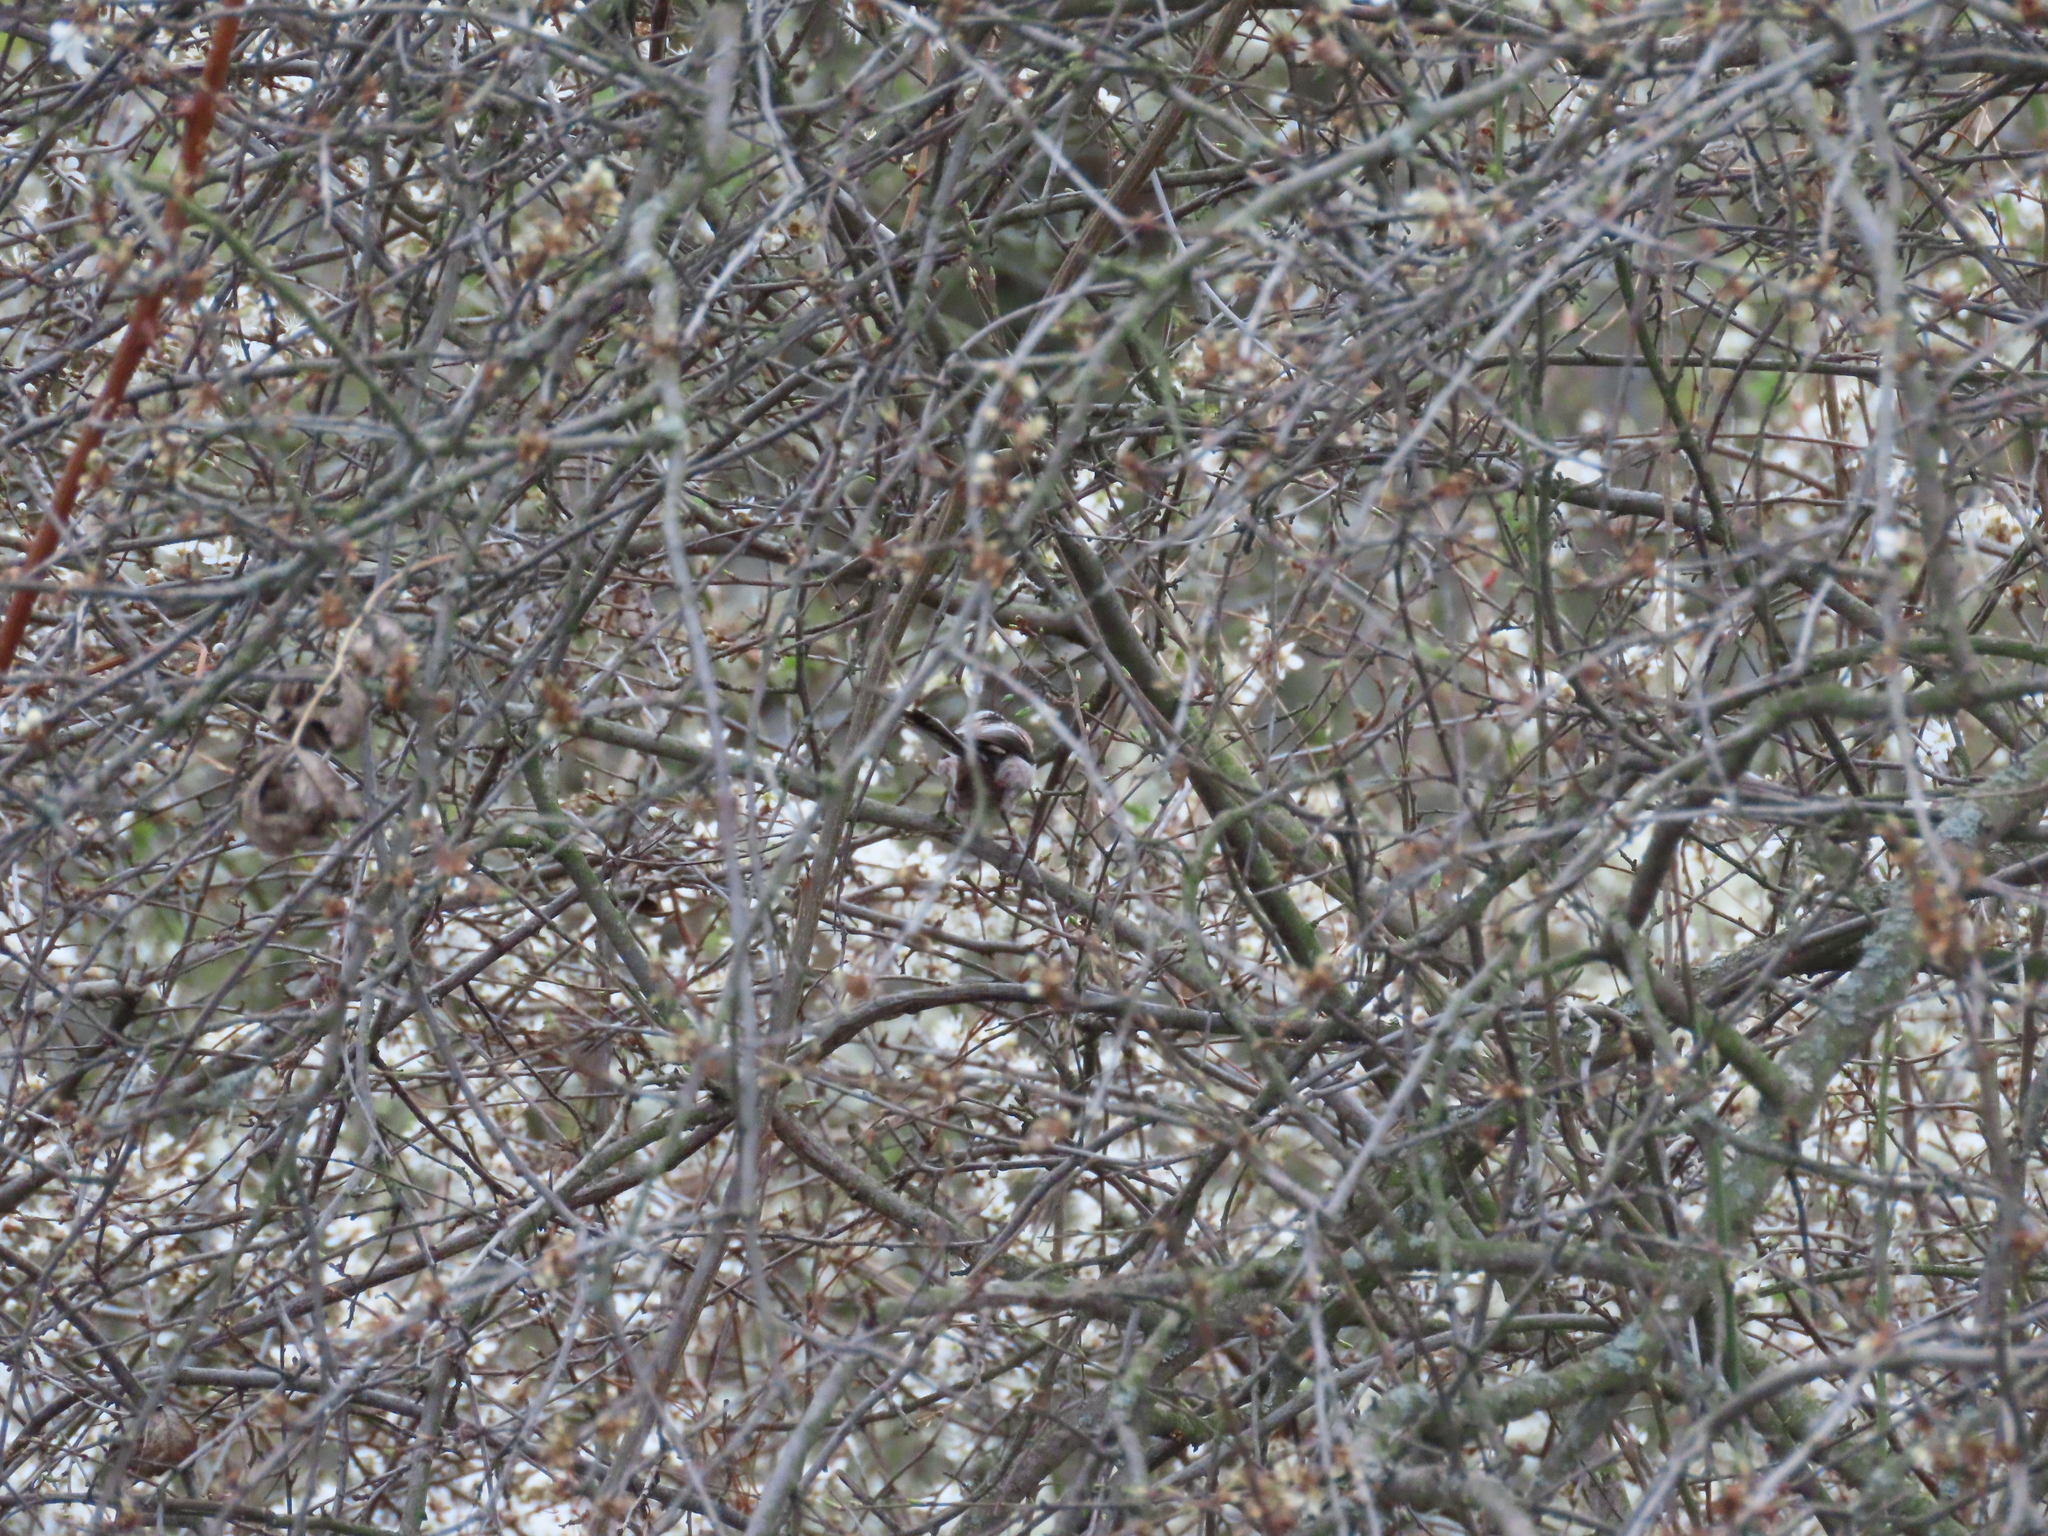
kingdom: Animalia
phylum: Chordata
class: Aves
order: Passeriformes
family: Aegithalidae
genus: Aegithalos
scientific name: Aegithalos caudatus
